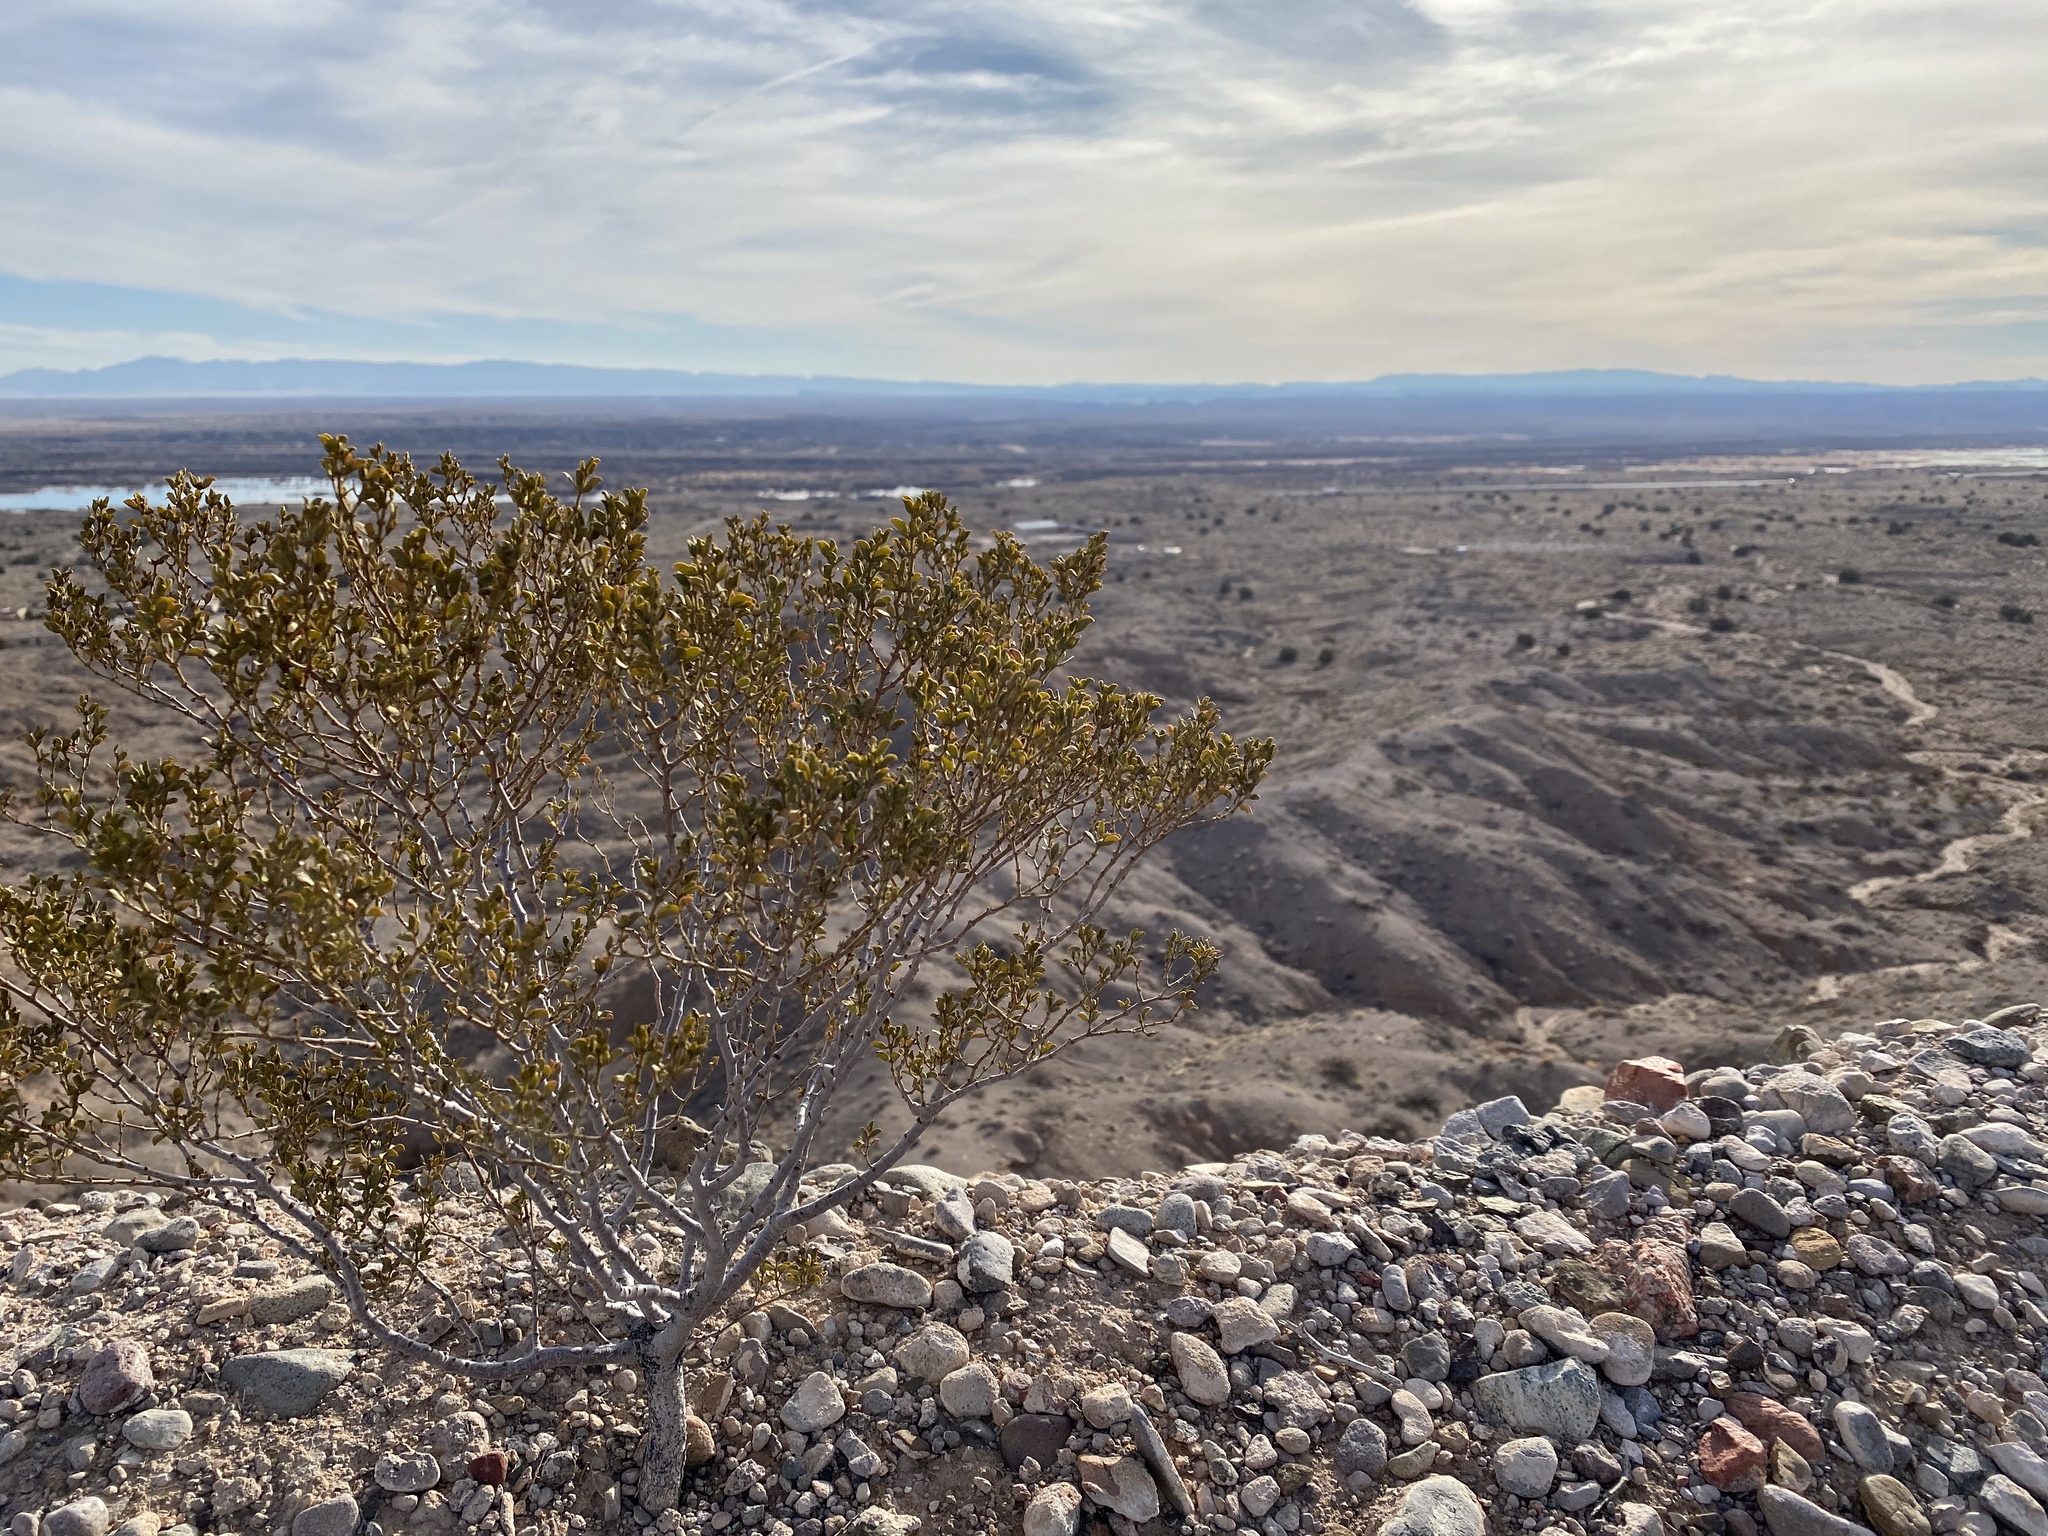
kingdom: Plantae
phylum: Tracheophyta
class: Magnoliopsida
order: Zygophyllales
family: Zygophyllaceae
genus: Larrea
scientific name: Larrea tridentata
